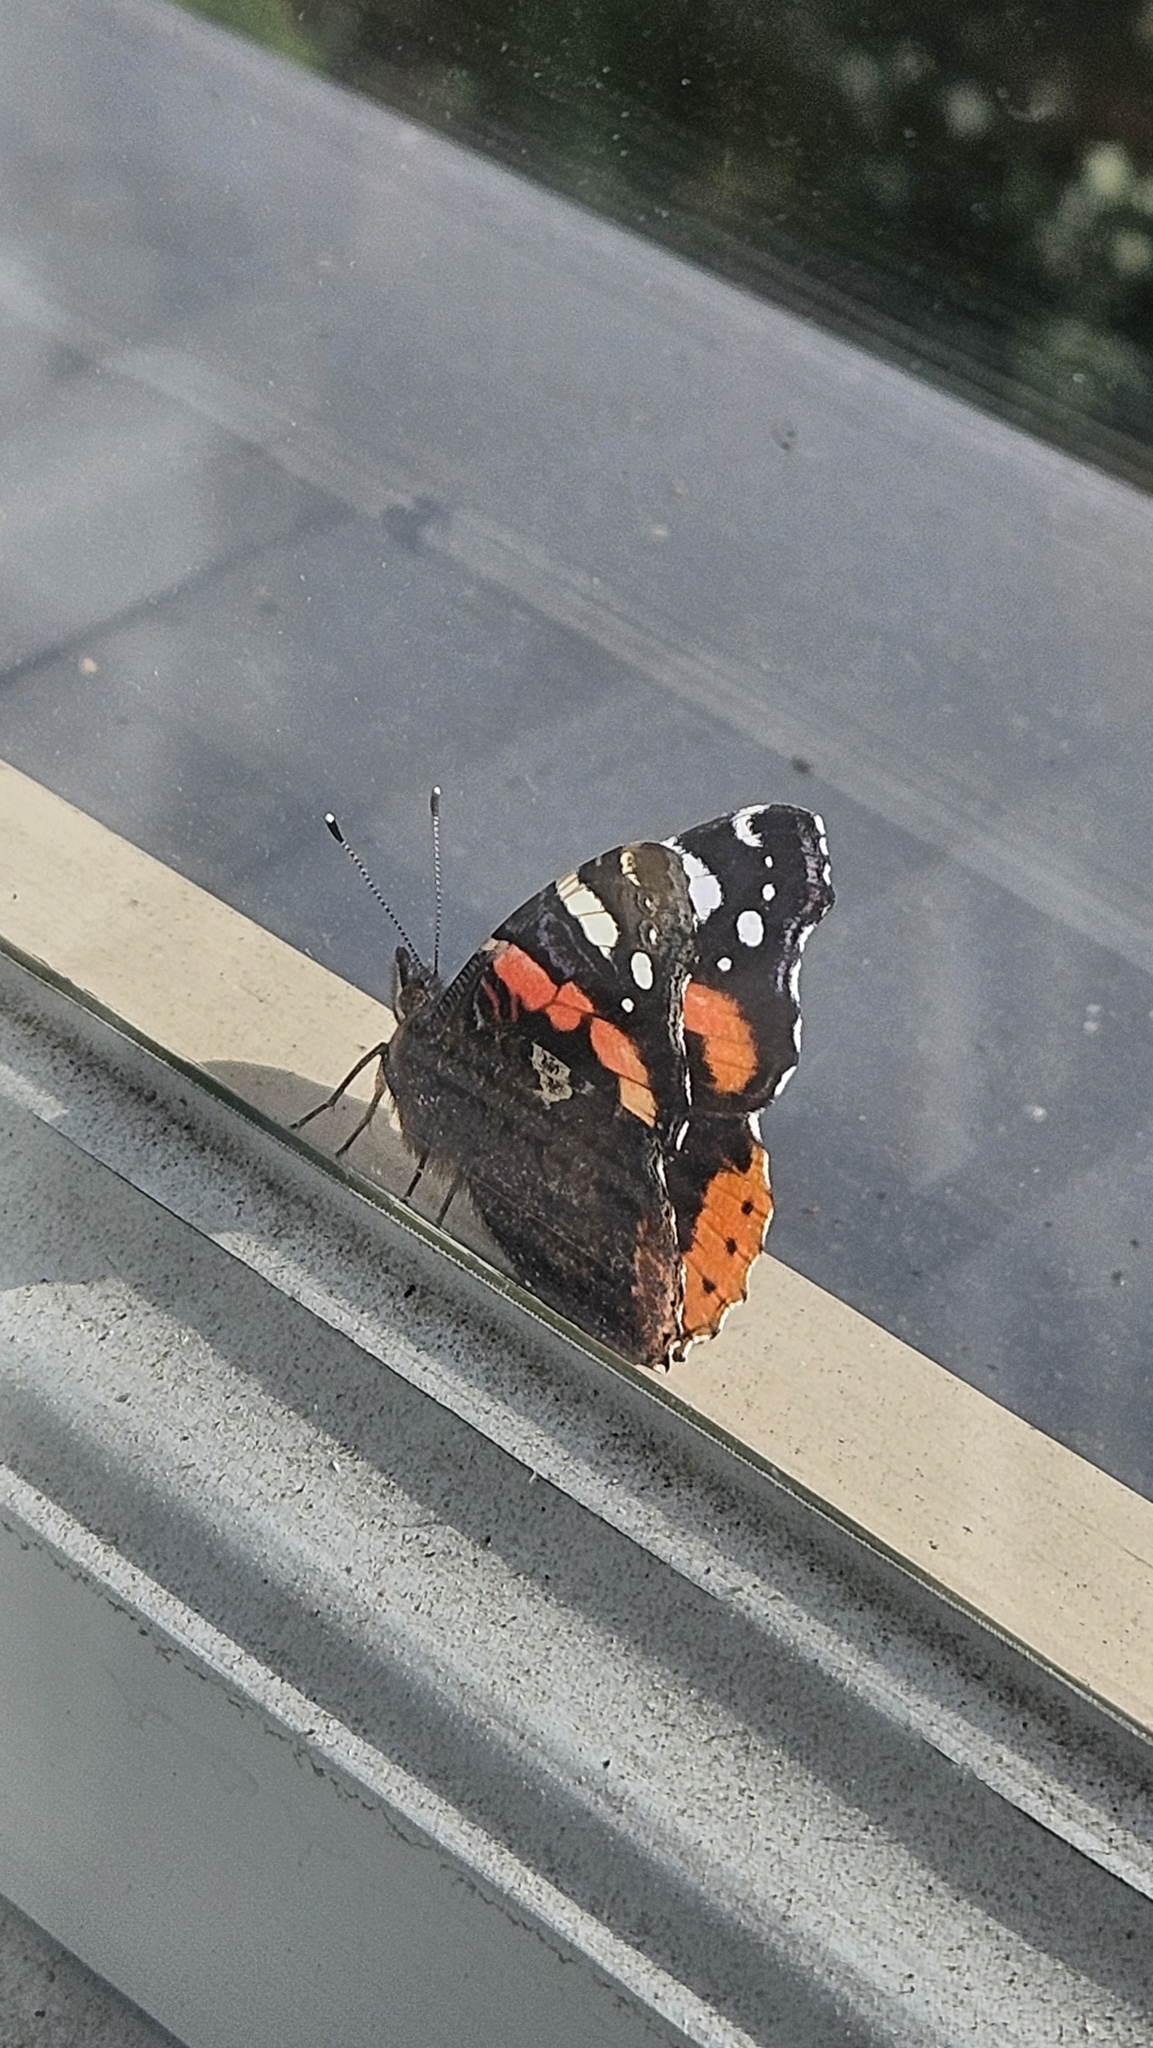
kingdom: Animalia
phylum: Arthropoda
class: Insecta
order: Lepidoptera
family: Nymphalidae
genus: Vanessa
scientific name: Vanessa atalanta
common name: Red admiral
